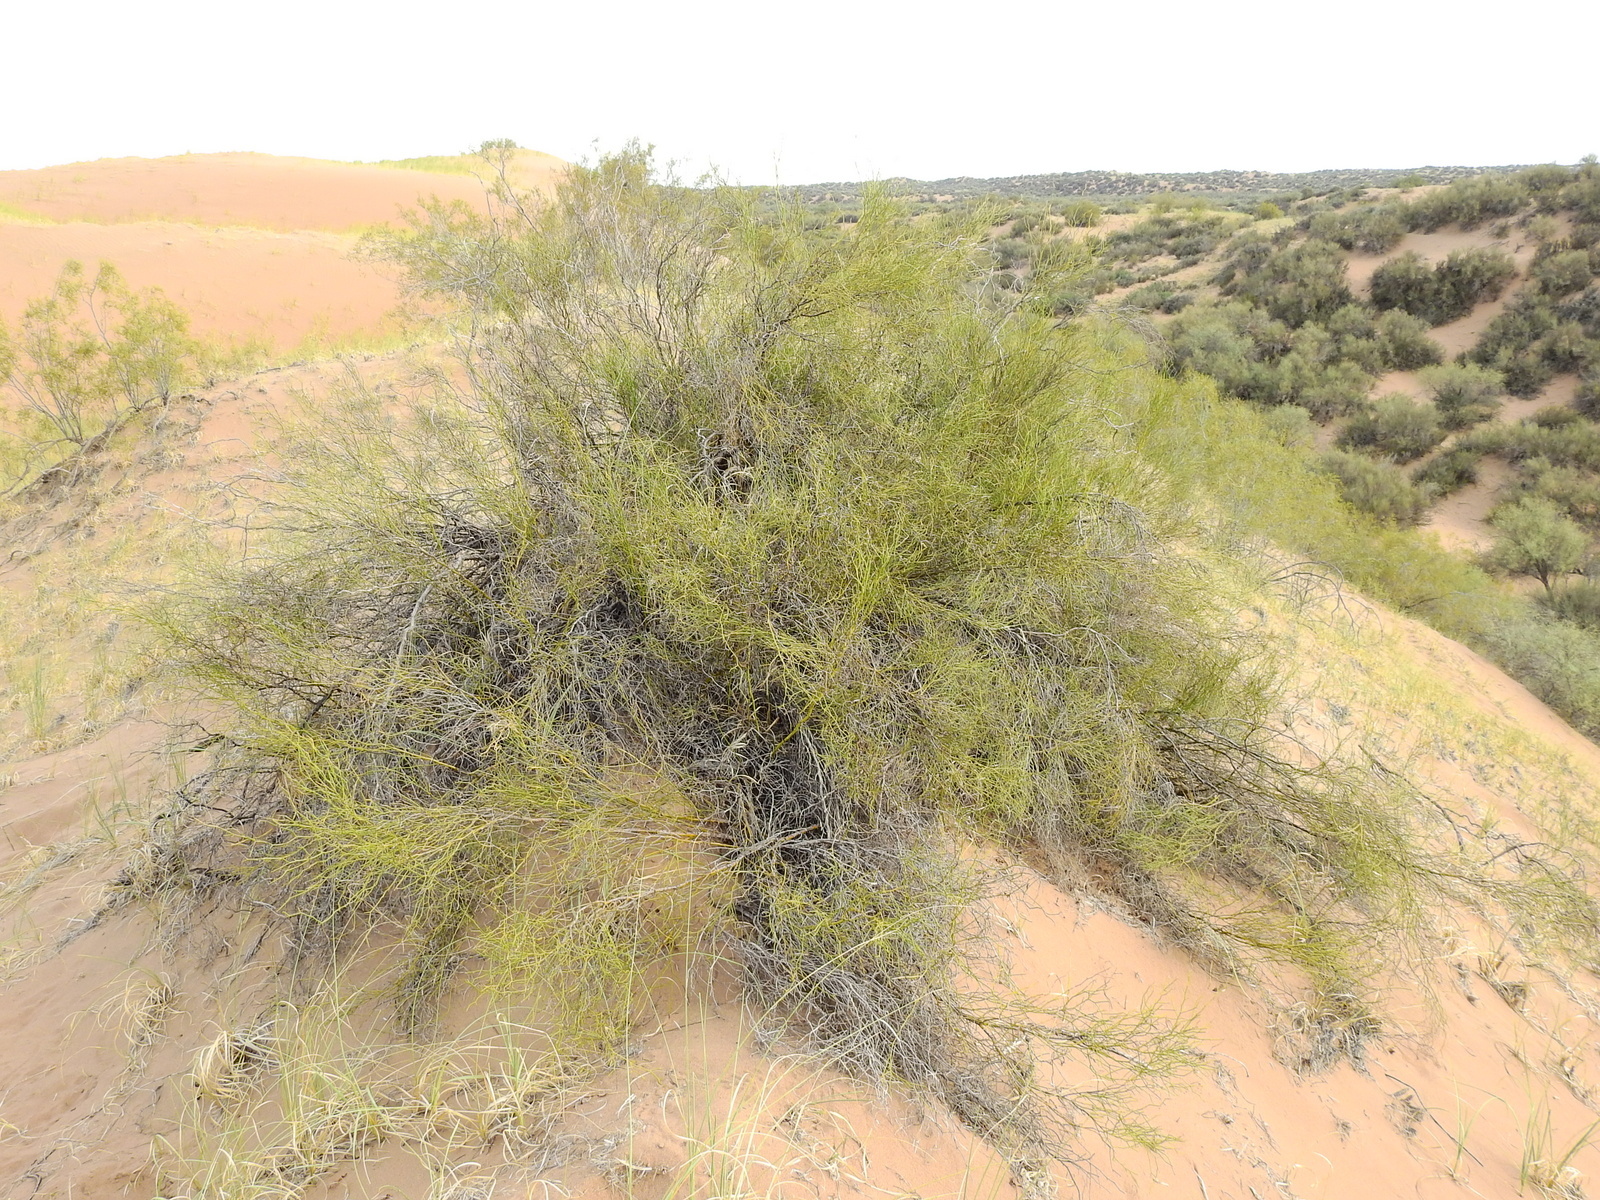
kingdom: Plantae
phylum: Tracheophyta
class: Magnoliopsida
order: Fabales
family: Fabaceae
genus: Senna
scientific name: Senna aphylla
